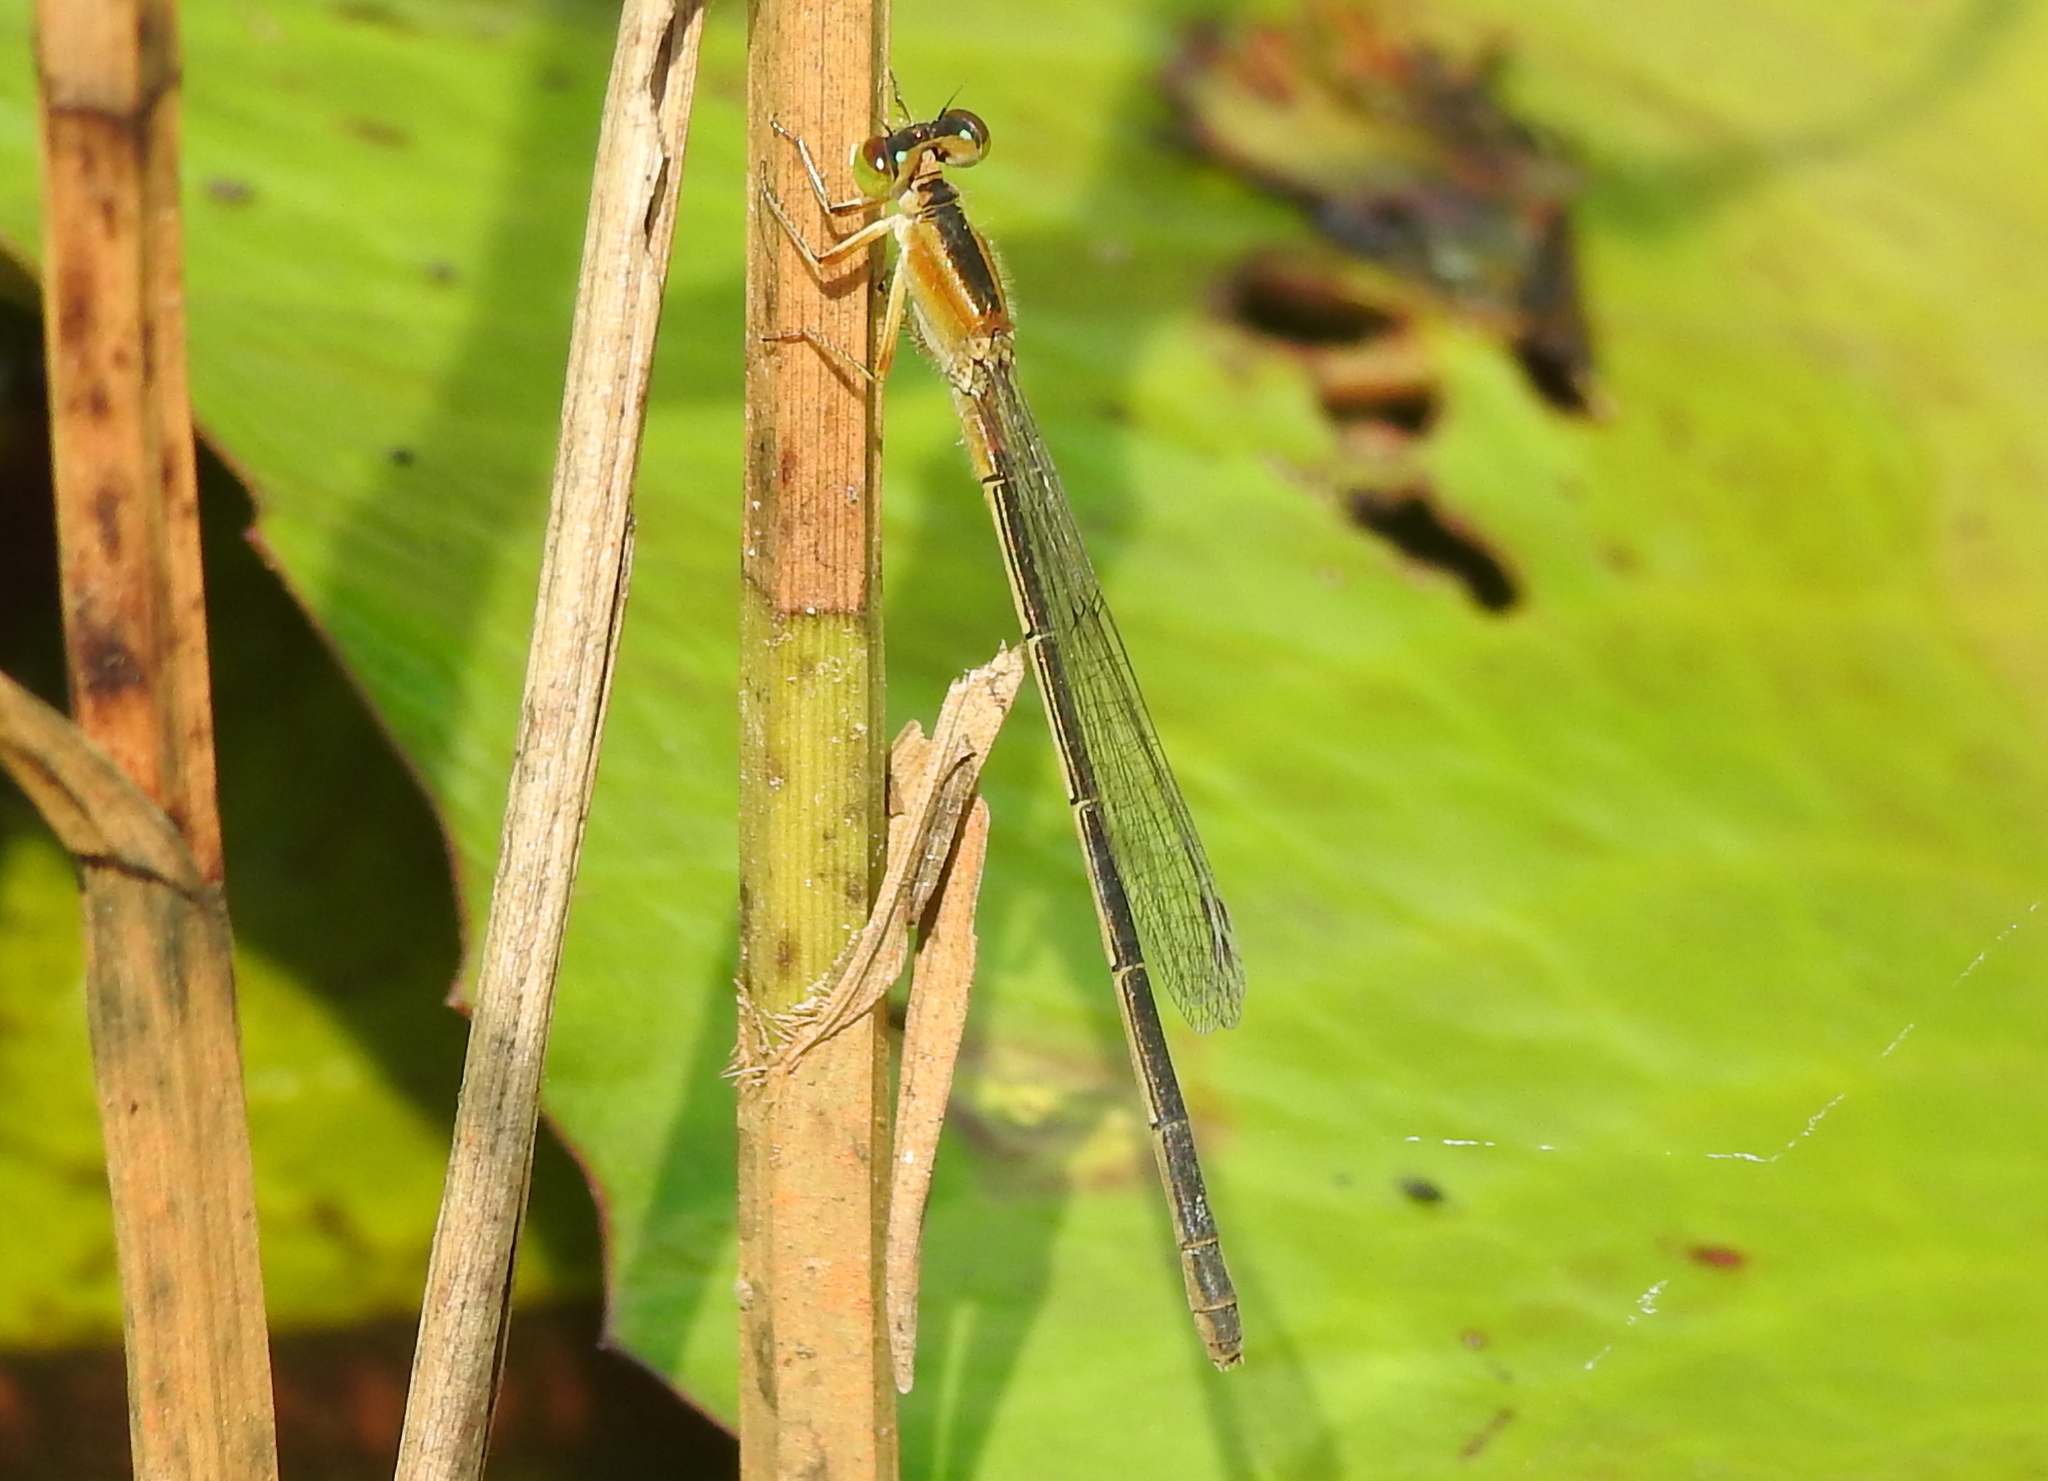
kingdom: Animalia
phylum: Arthropoda
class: Insecta
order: Odonata
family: Coenagrionidae
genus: Ischnura
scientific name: Ischnura senegalensis
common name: Tropical bluetail
